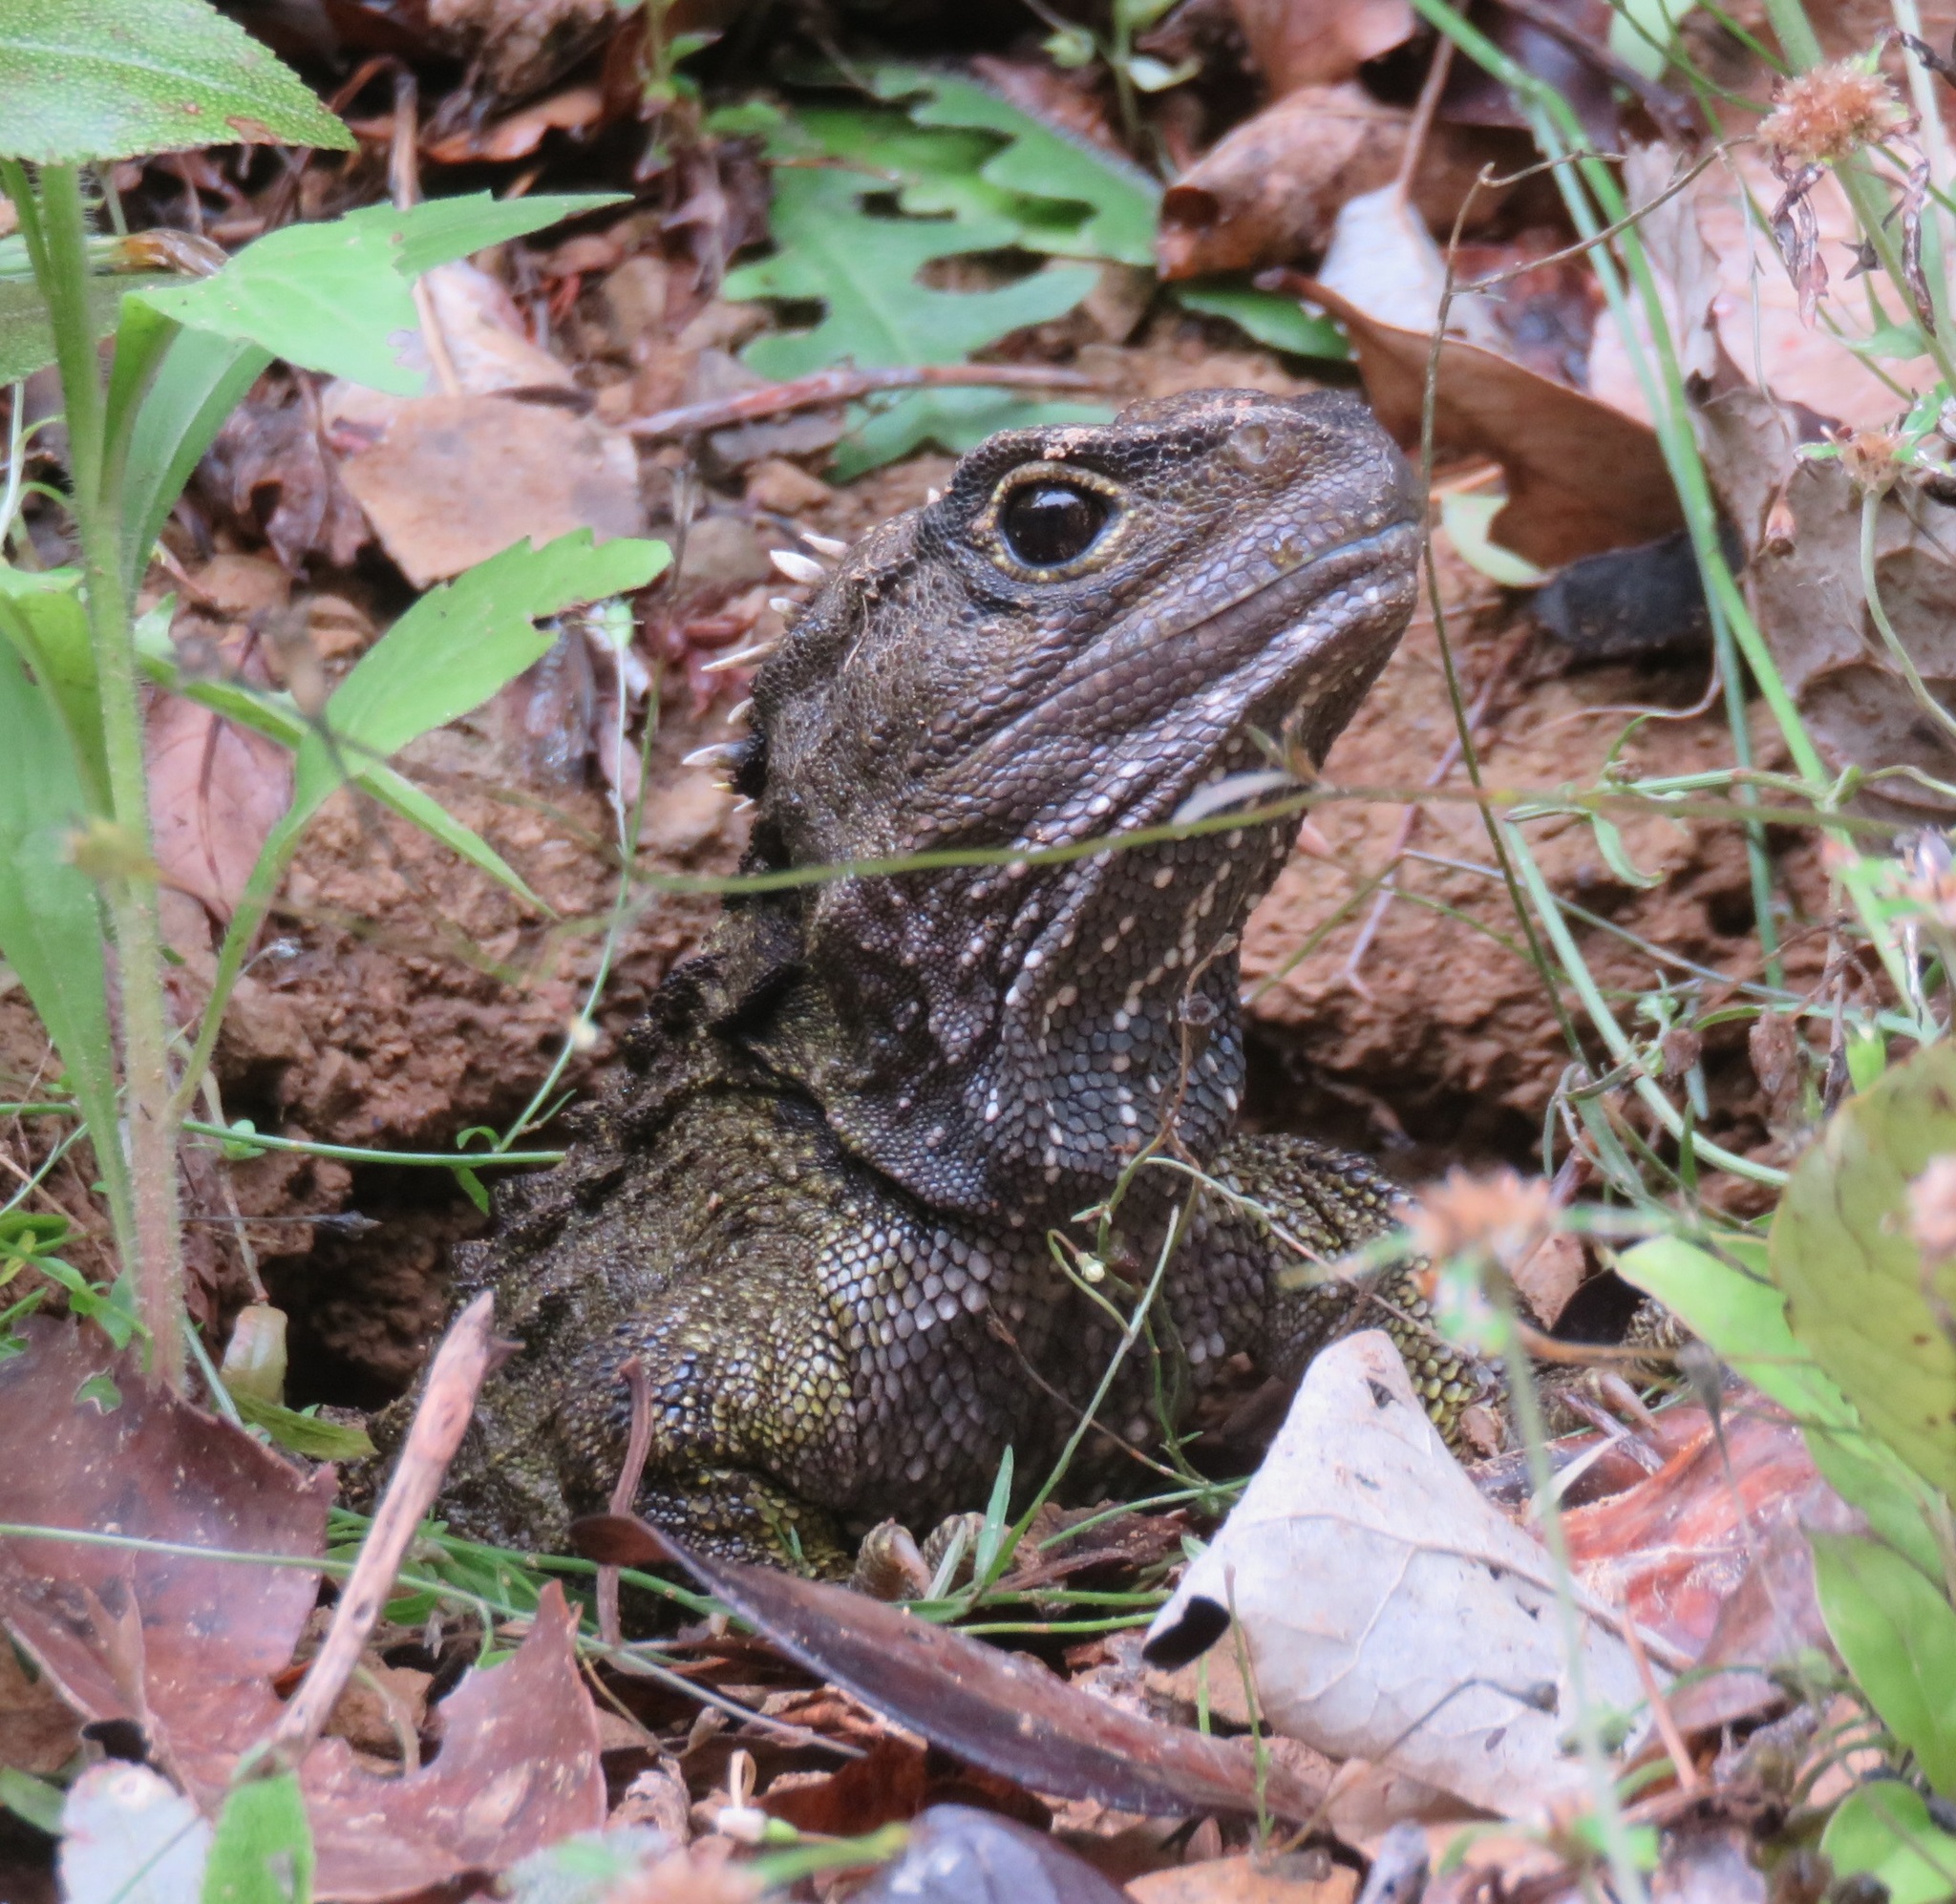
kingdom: Animalia
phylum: Chordata
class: Sphenodontia
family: Sphenodontidae
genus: Sphenodon
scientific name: Sphenodon punctatus
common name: Tuatara
